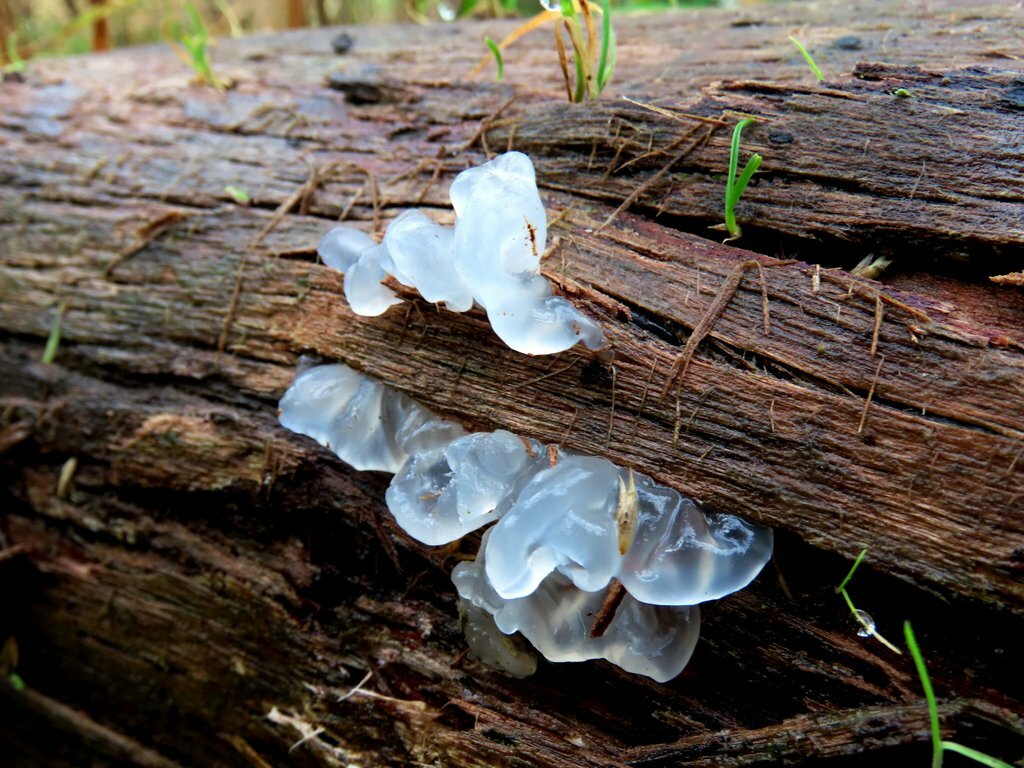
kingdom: Fungi
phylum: Basidiomycota
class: Tremellomycetes
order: Tremellales
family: Tremellaceae
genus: Tremella
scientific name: Tremella fuciformis
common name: Snow fungus
